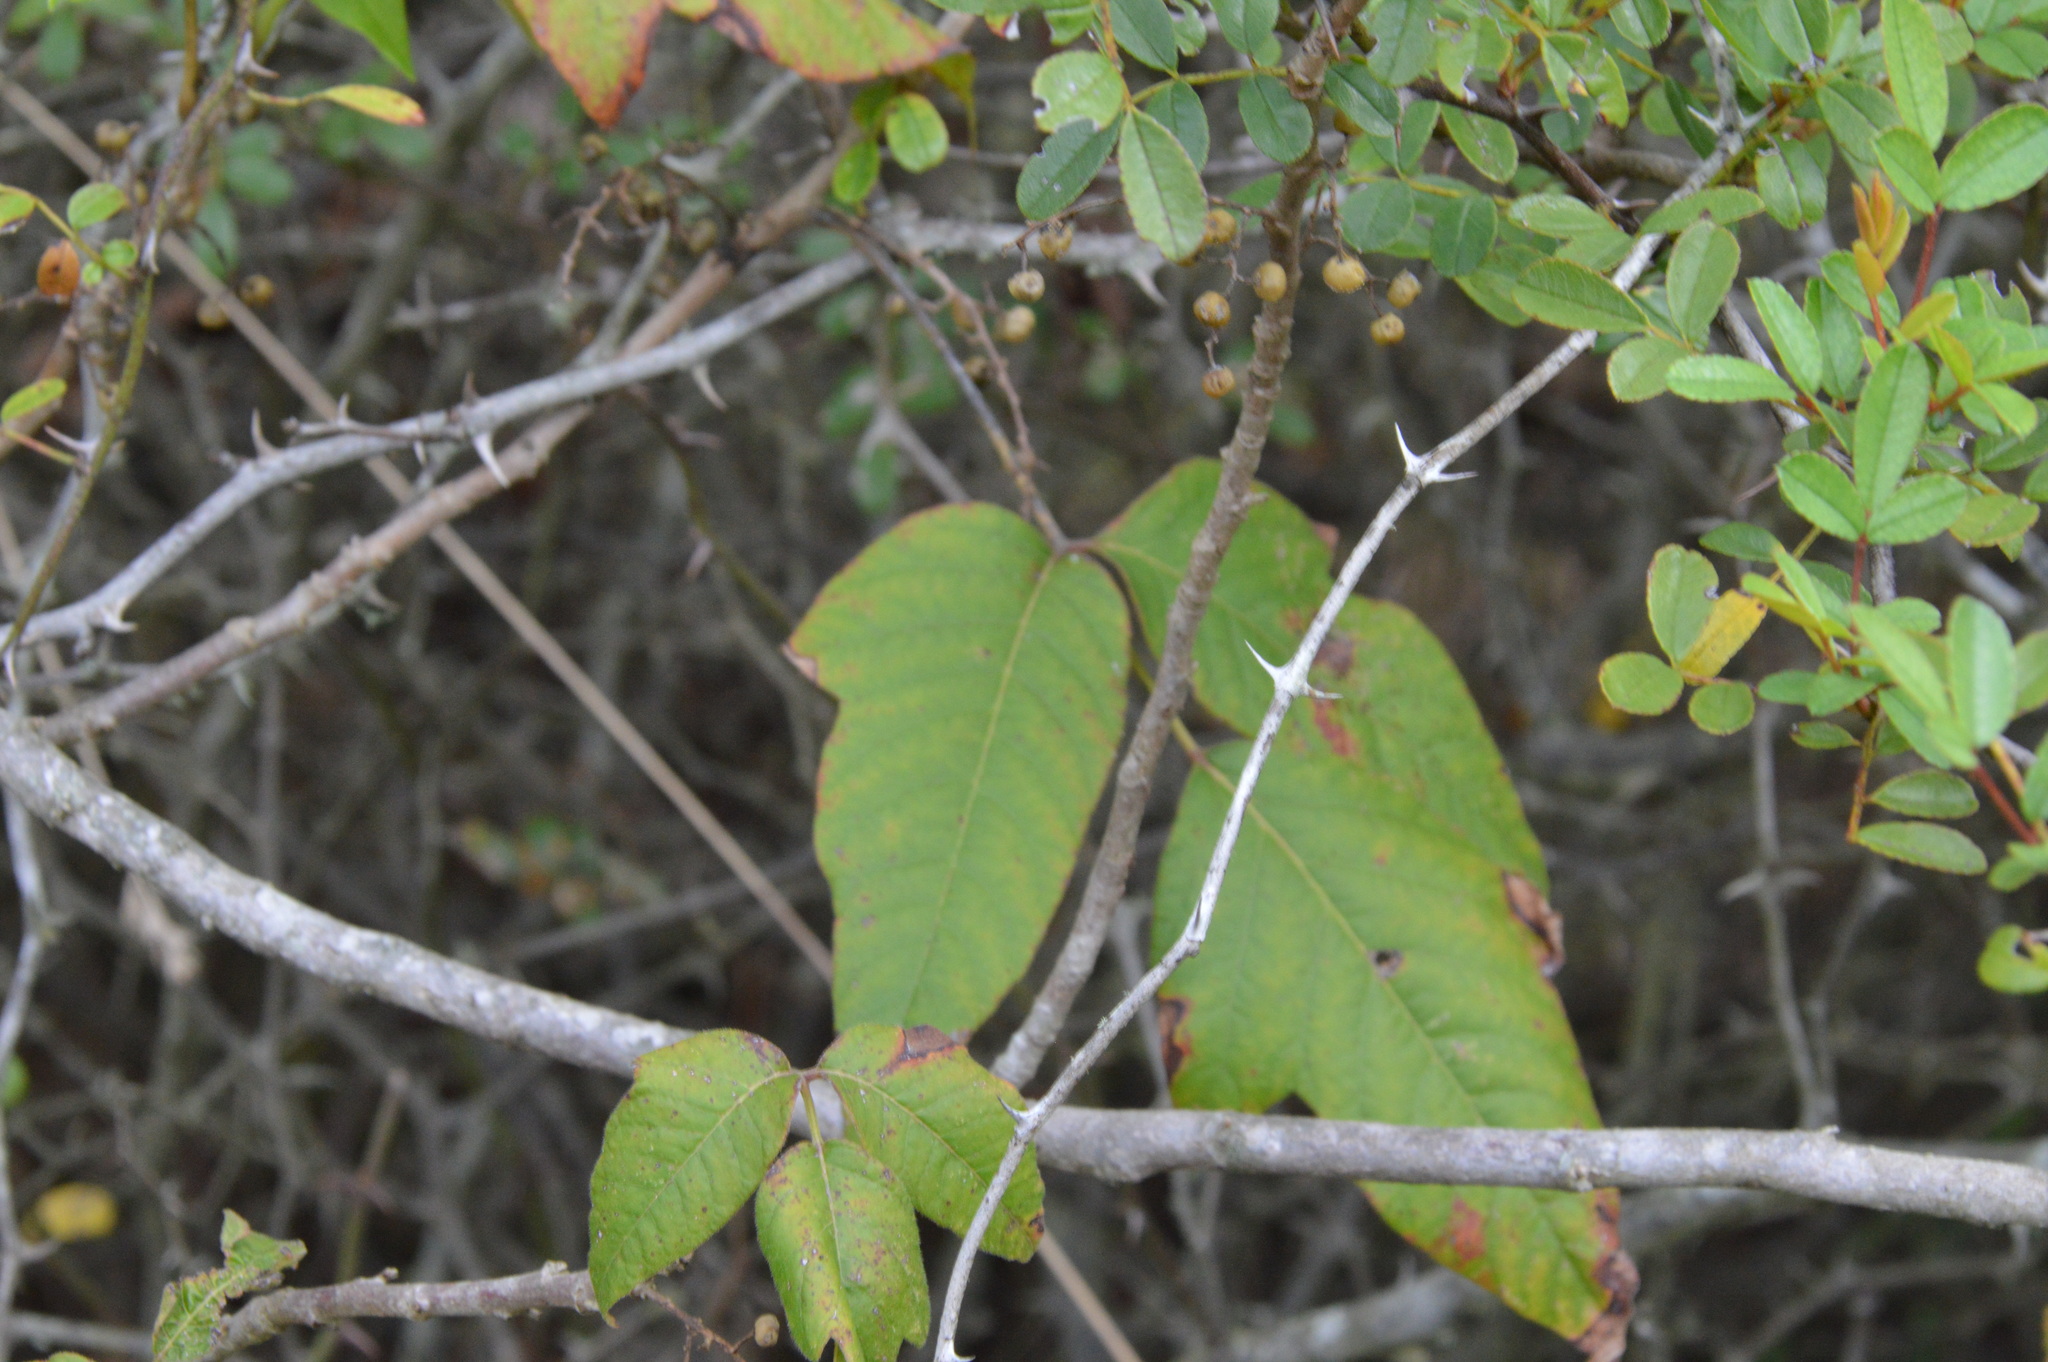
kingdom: Plantae
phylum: Tracheophyta
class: Magnoliopsida
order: Sapindales
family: Anacardiaceae
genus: Toxicodendron
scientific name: Toxicodendron radicans
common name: Poison ivy
